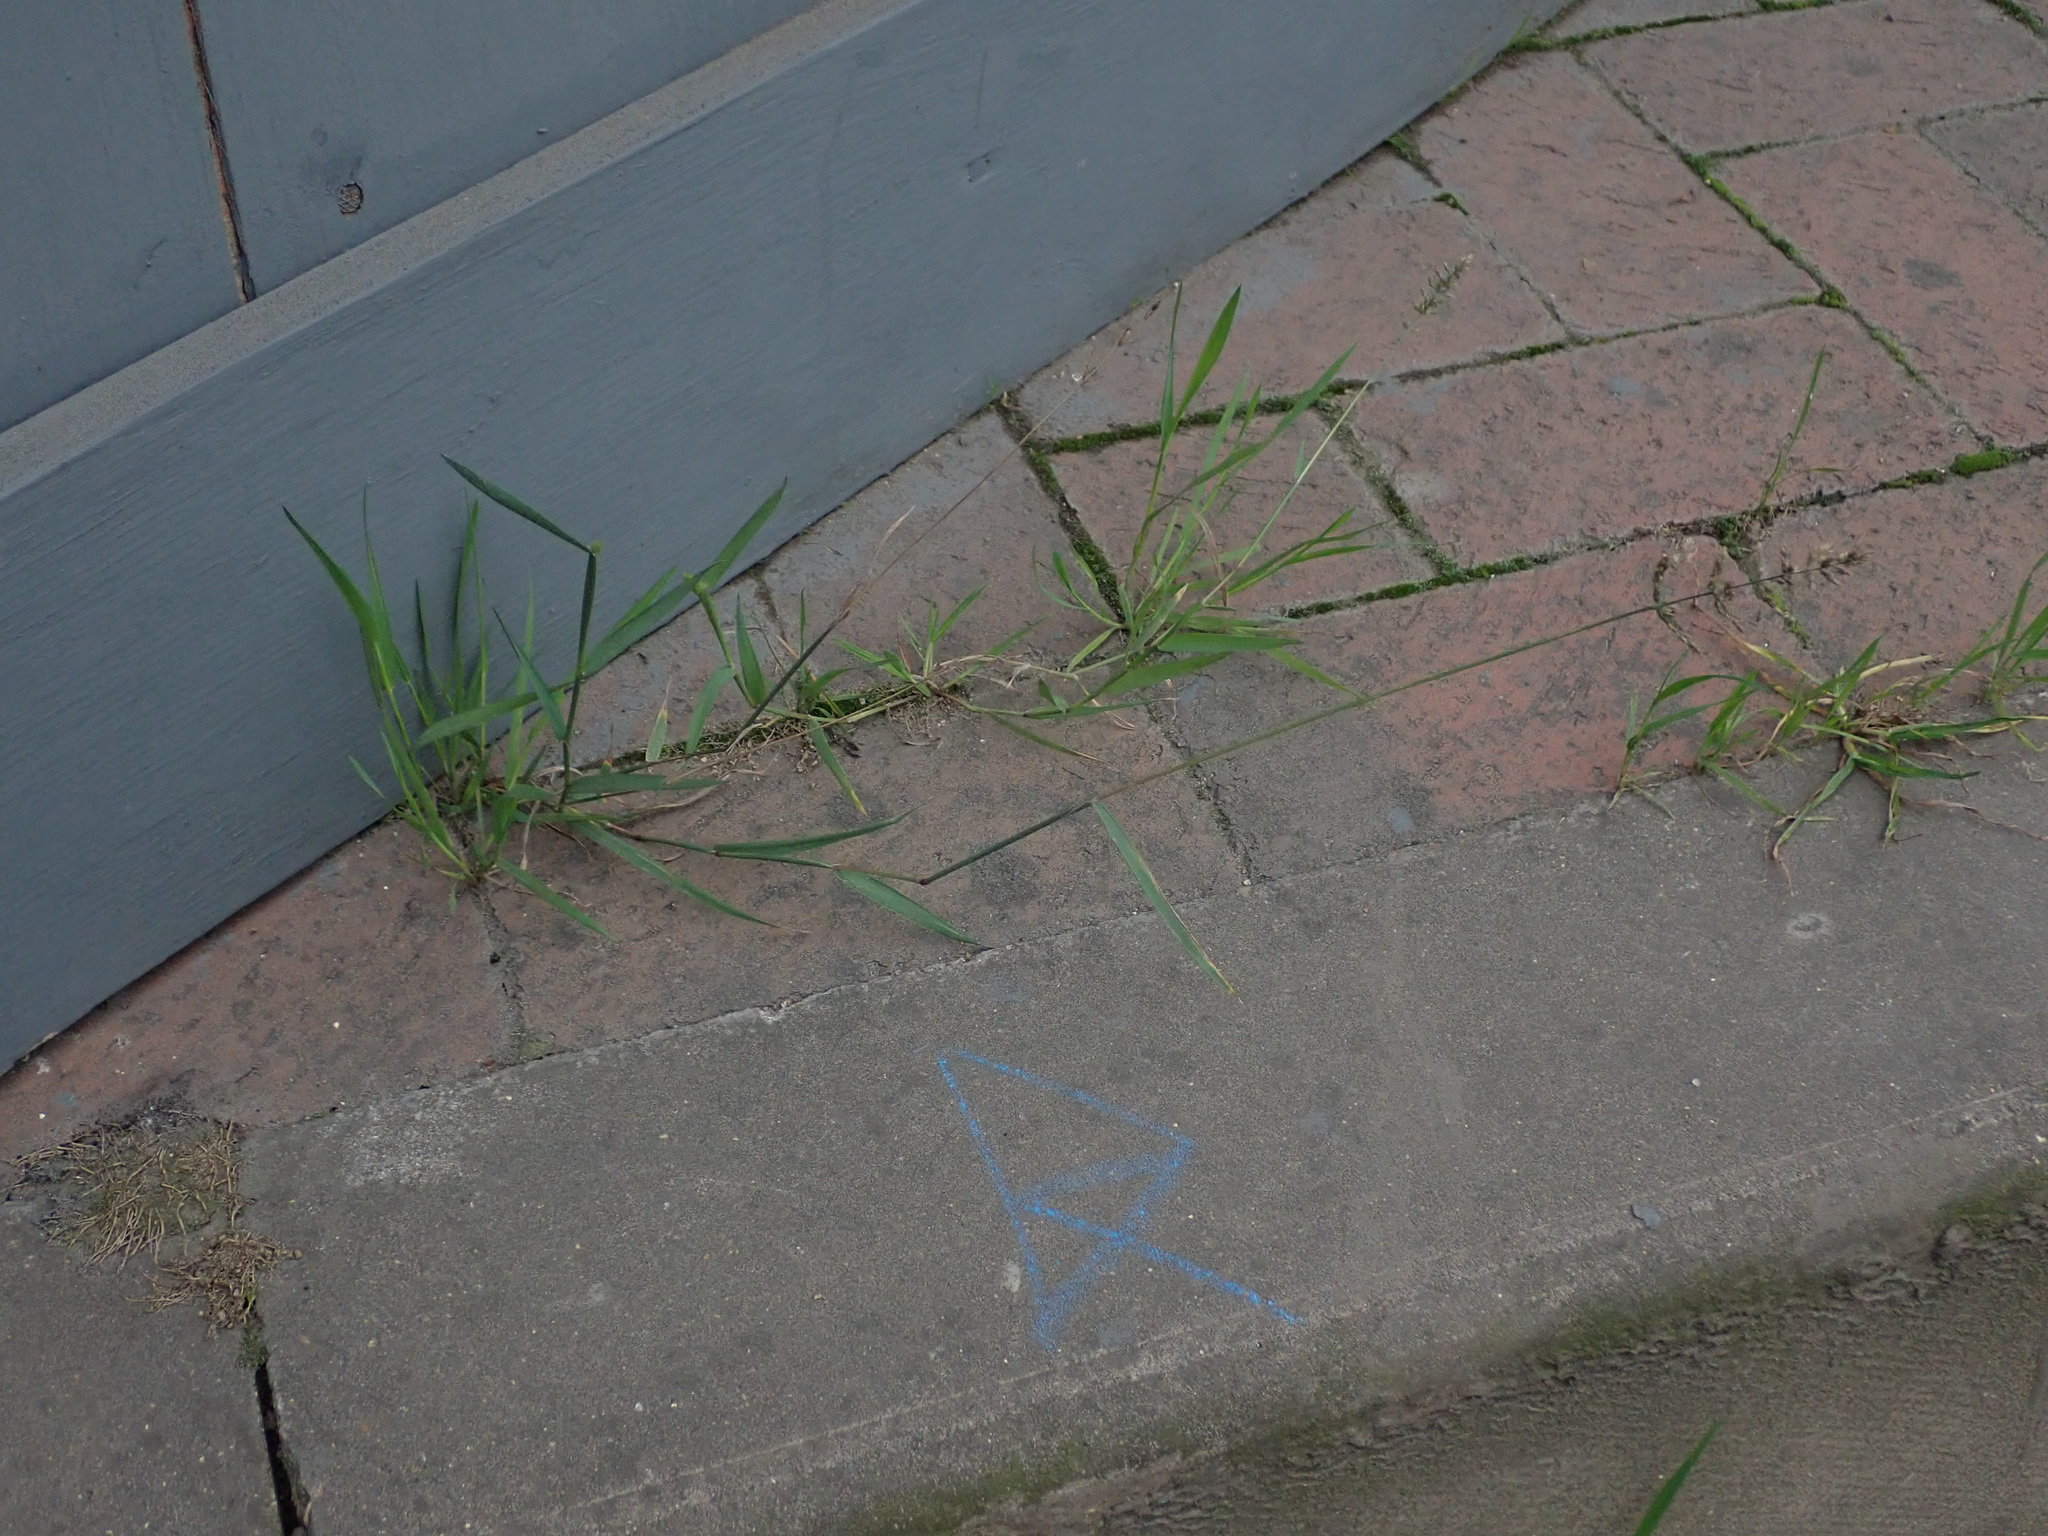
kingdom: Plantae
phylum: Tracheophyta
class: Liliopsida
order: Poales
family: Poaceae
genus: Polypogon
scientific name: Polypogon viridis
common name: Water bent
